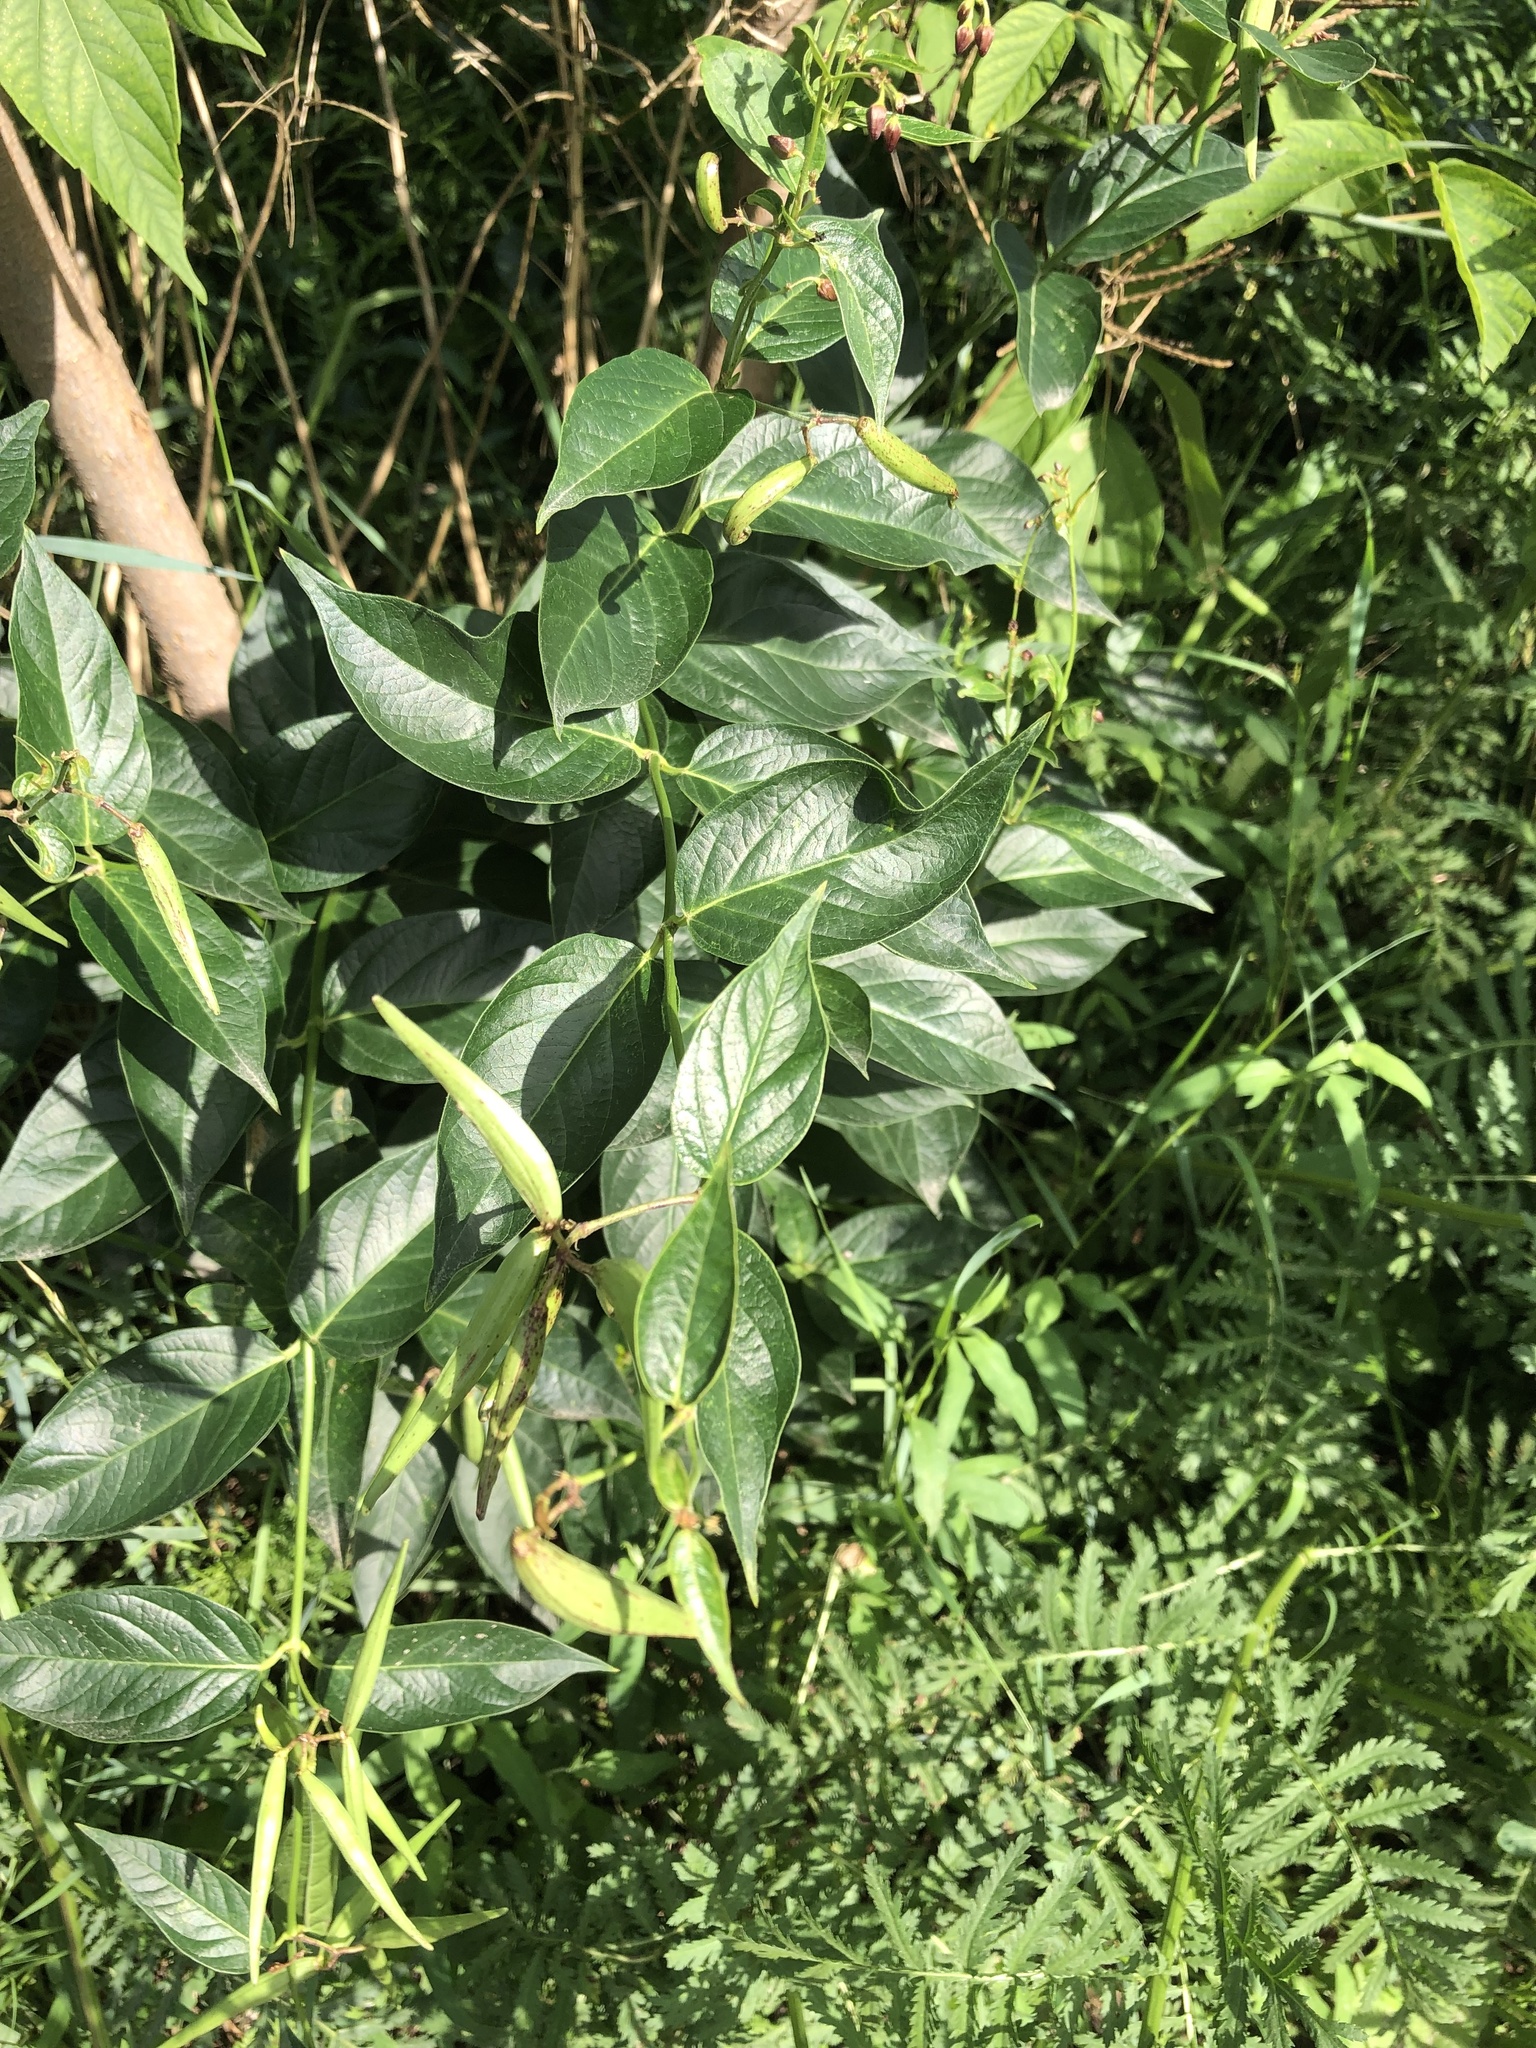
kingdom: Plantae
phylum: Tracheophyta
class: Magnoliopsida
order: Gentianales
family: Apocynaceae
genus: Vincetoxicum
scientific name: Vincetoxicum rossicum
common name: Dog-strangling vine
